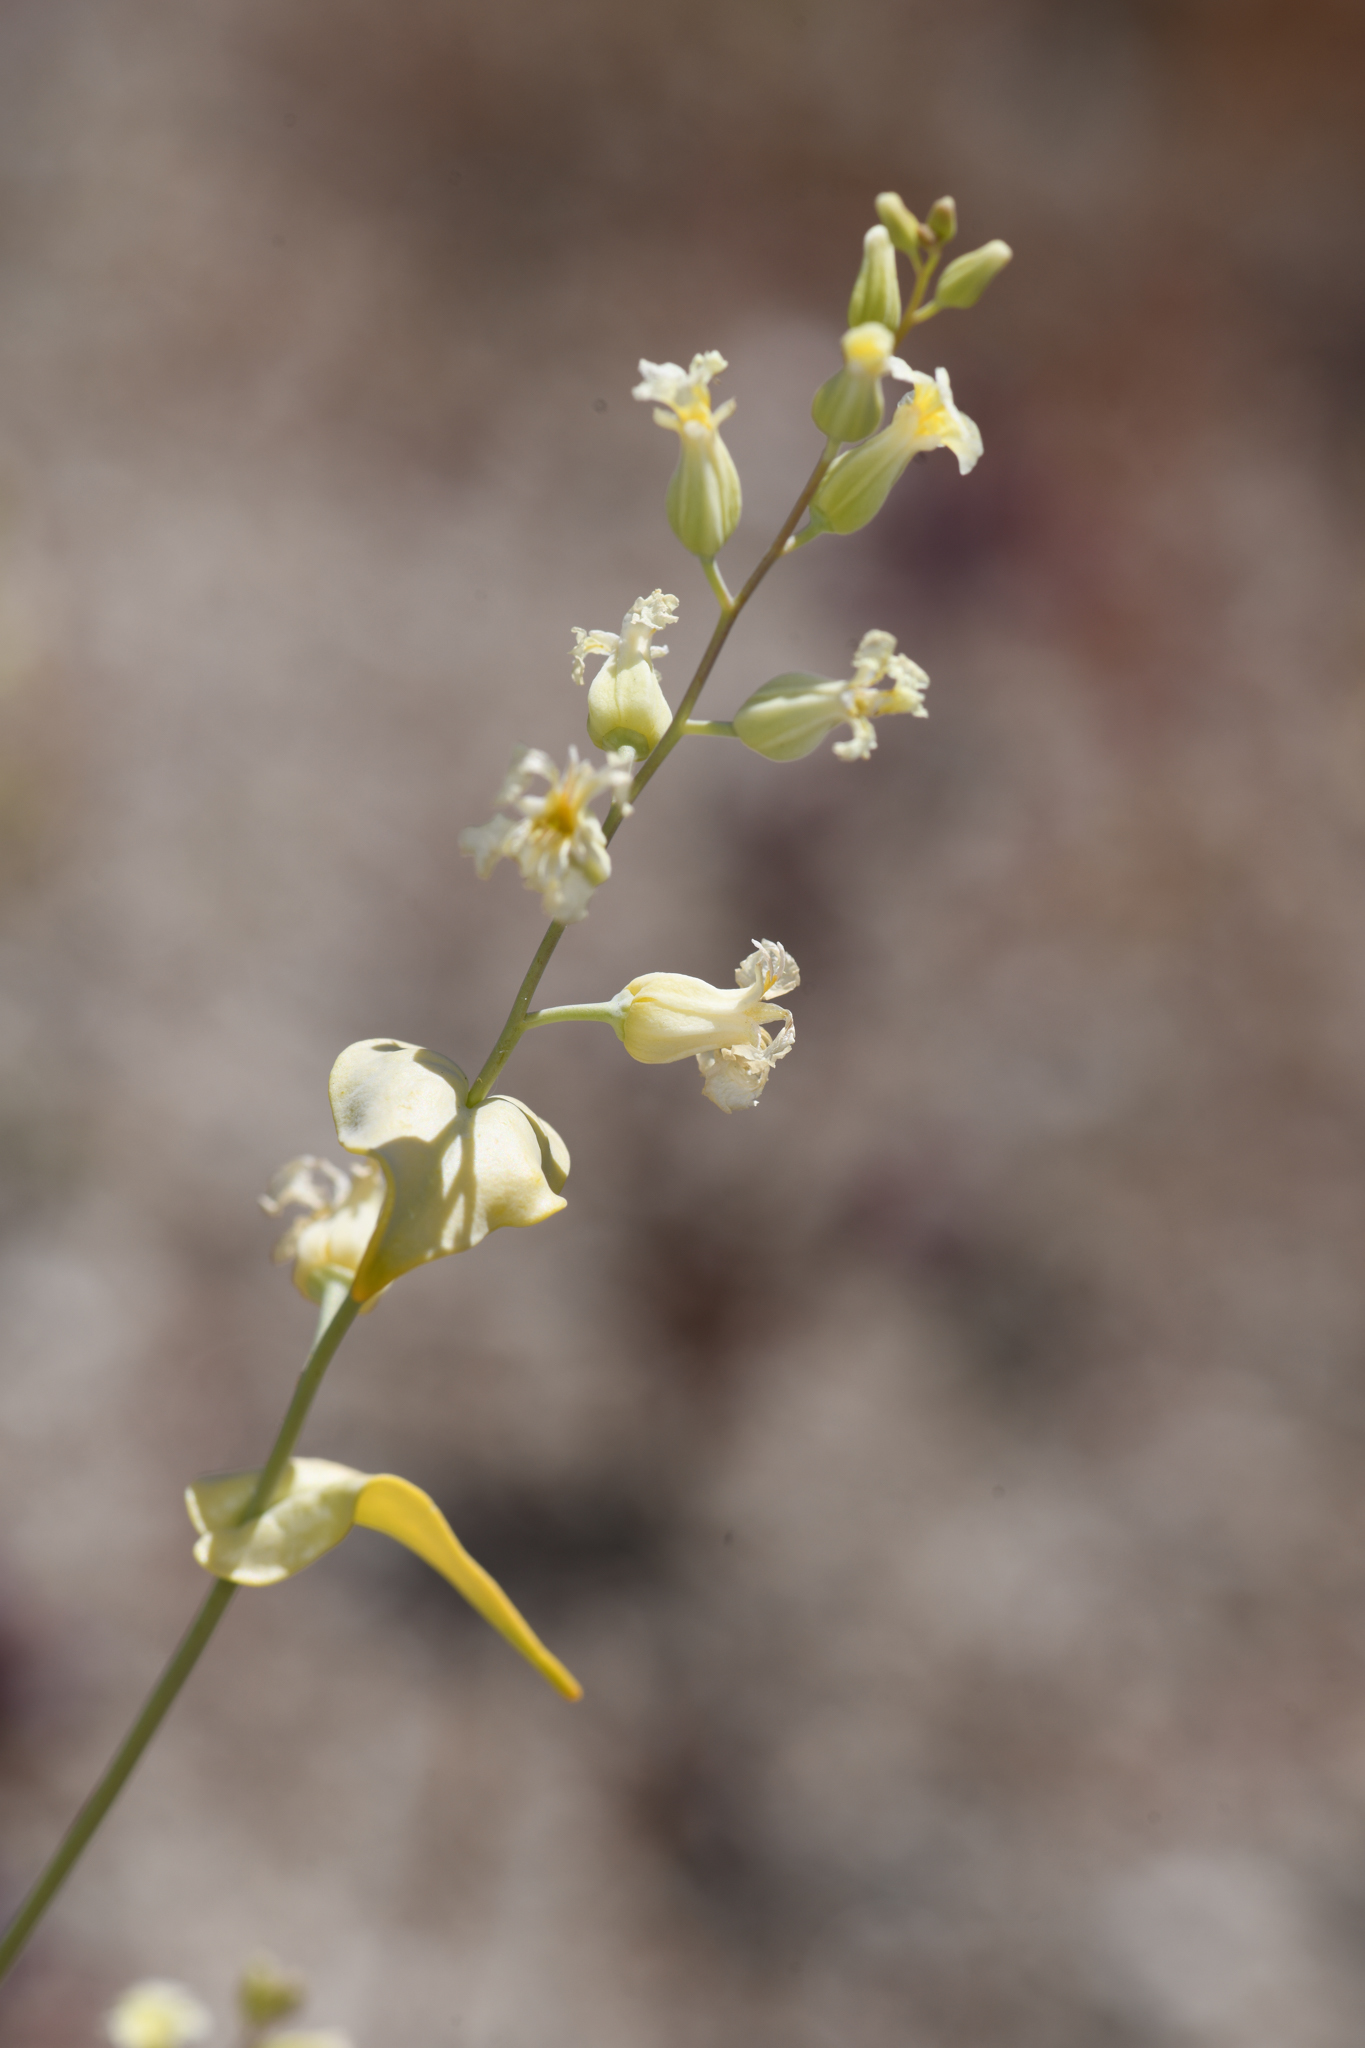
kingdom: Plantae
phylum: Tracheophyta
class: Magnoliopsida
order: Brassicales
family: Brassicaceae
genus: Streptanthus
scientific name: Streptanthus diversifolius
